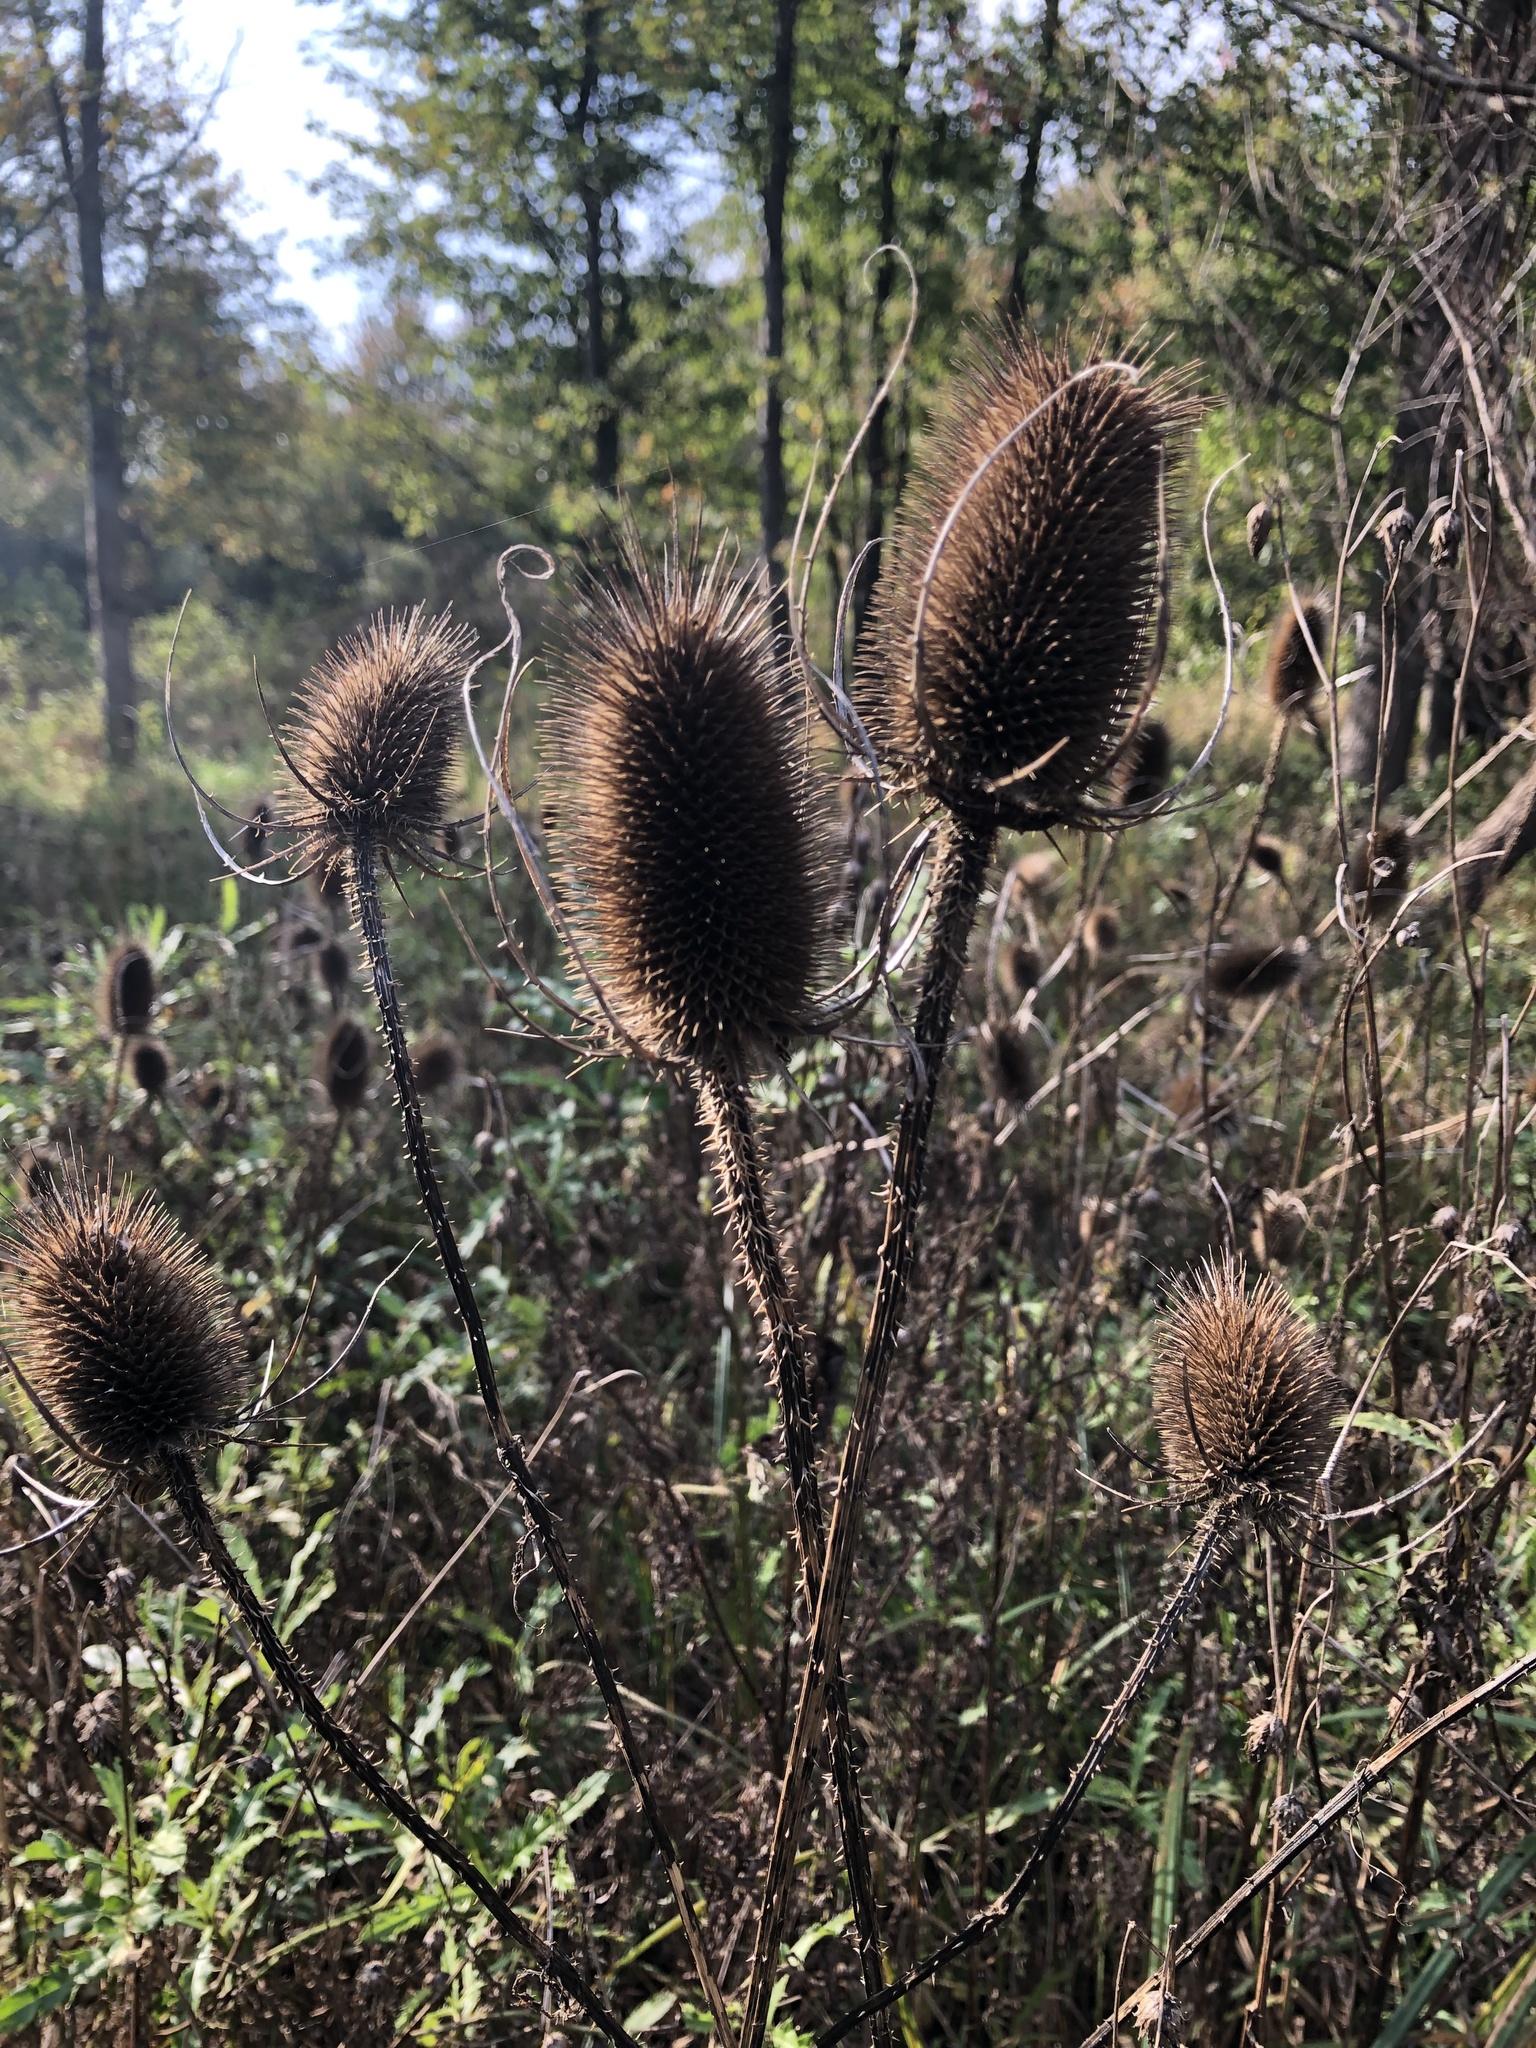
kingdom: Plantae
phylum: Tracheophyta
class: Magnoliopsida
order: Dipsacales
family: Caprifoliaceae
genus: Dipsacus
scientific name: Dipsacus fullonum
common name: Teasel
